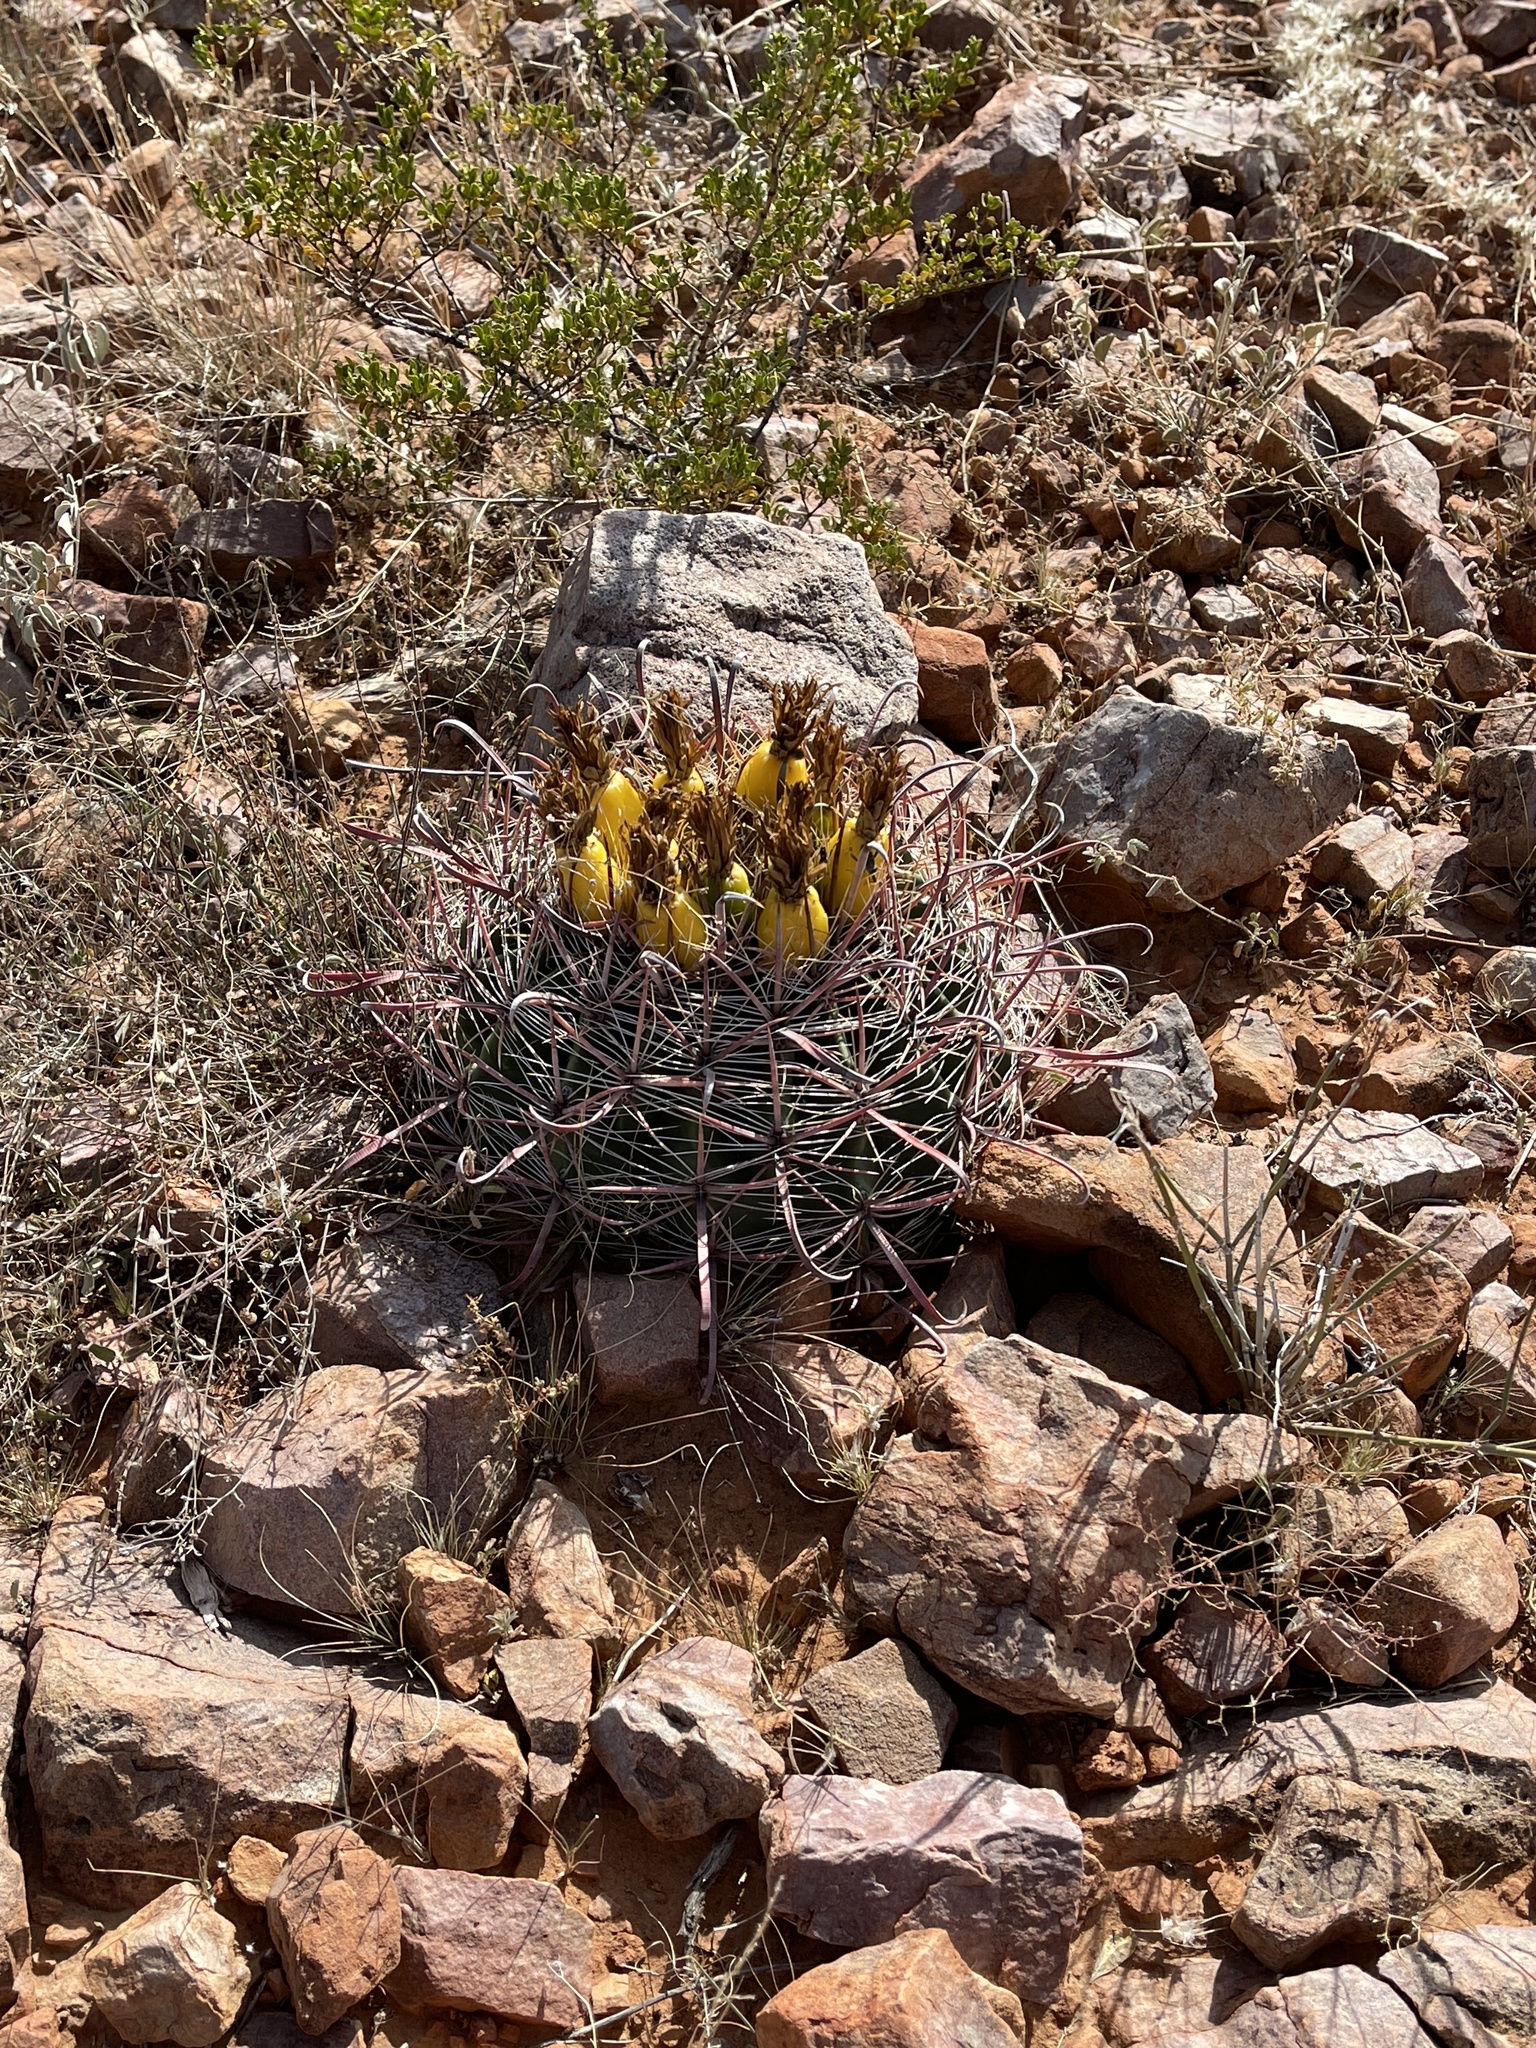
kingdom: Plantae
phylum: Tracheophyta
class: Magnoliopsida
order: Caryophyllales
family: Cactaceae
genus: Ferocactus
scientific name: Ferocactus wislizeni
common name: Candy barrel cactus
